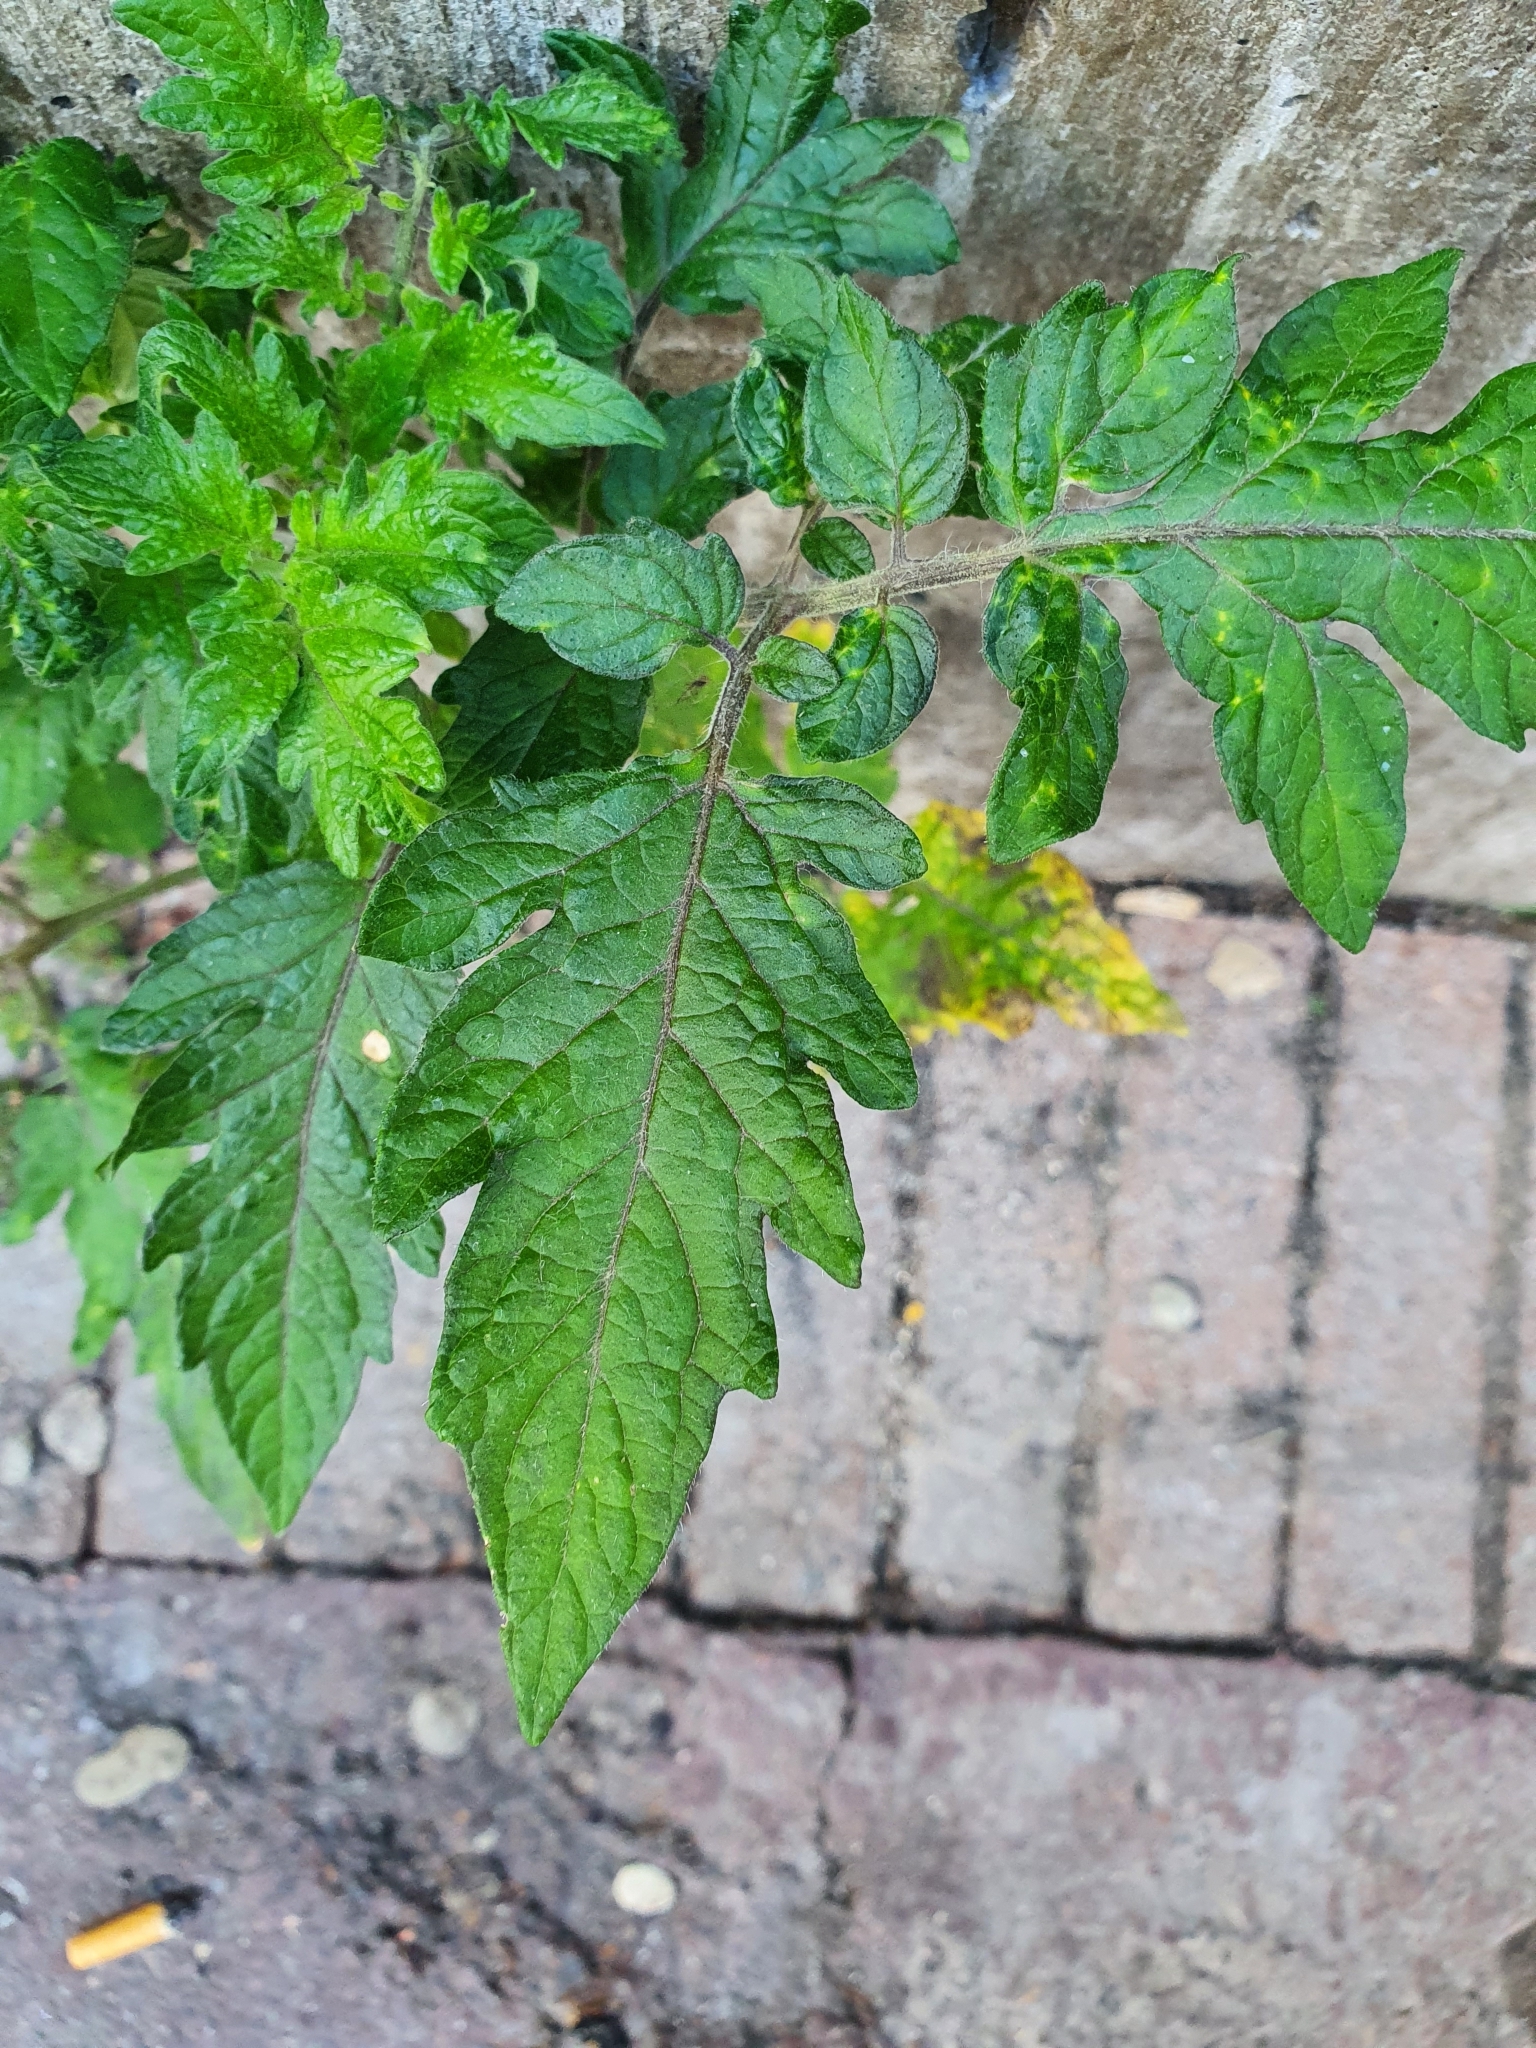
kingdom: Plantae
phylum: Tracheophyta
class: Magnoliopsida
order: Solanales
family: Solanaceae
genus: Solanum
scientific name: Solanum lycopersicum
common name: Garden tomato
